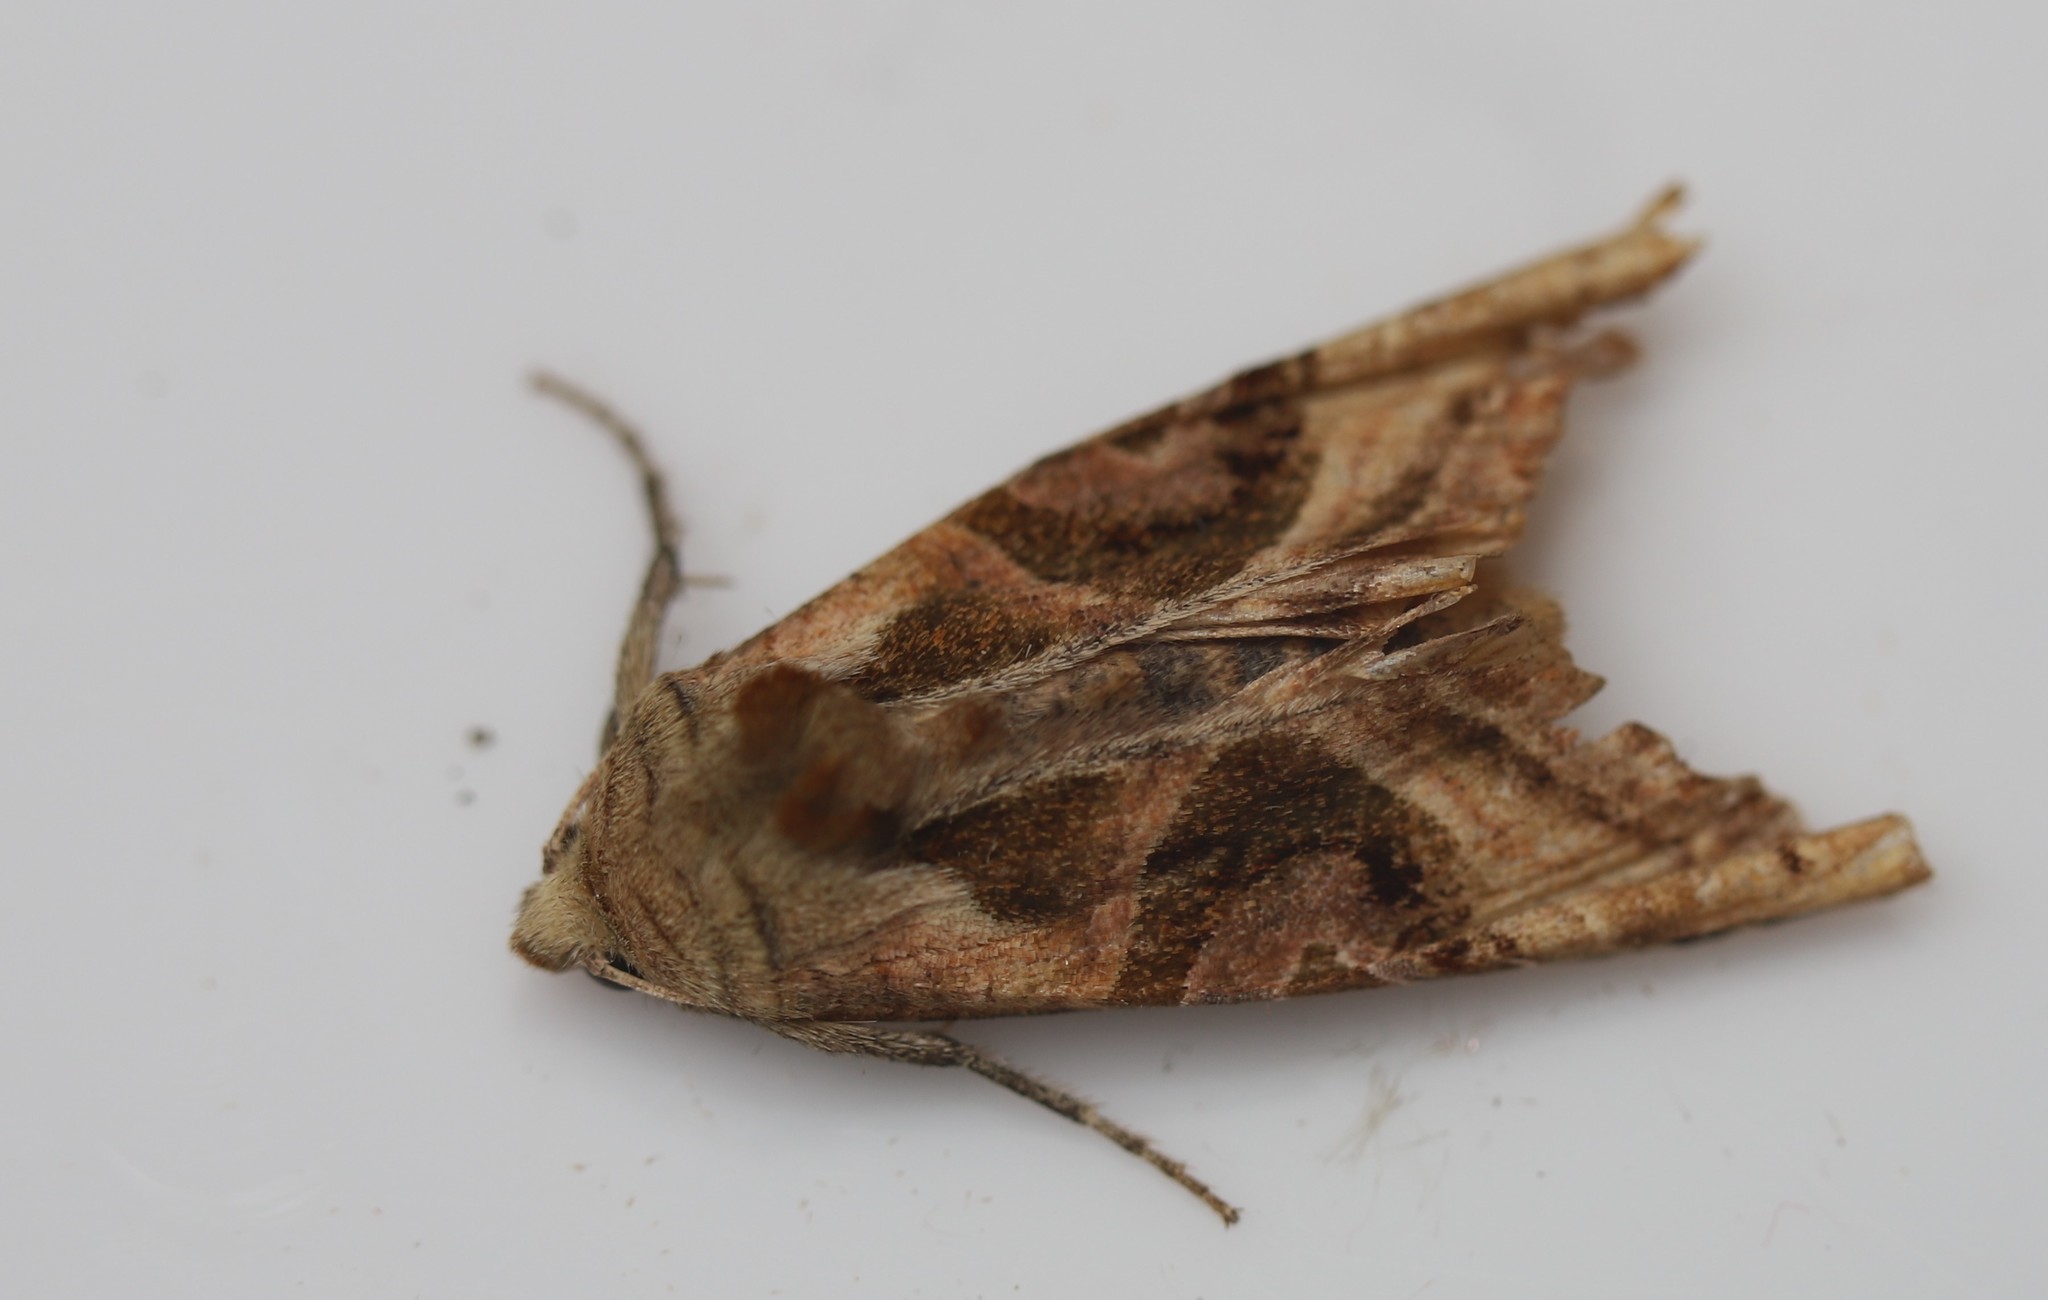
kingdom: Animalia
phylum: Arthropoda
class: Insecta
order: Lepidoptera
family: Noctuidae
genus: Phlogophora
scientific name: Phlogophora iris
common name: Olive angle shades
